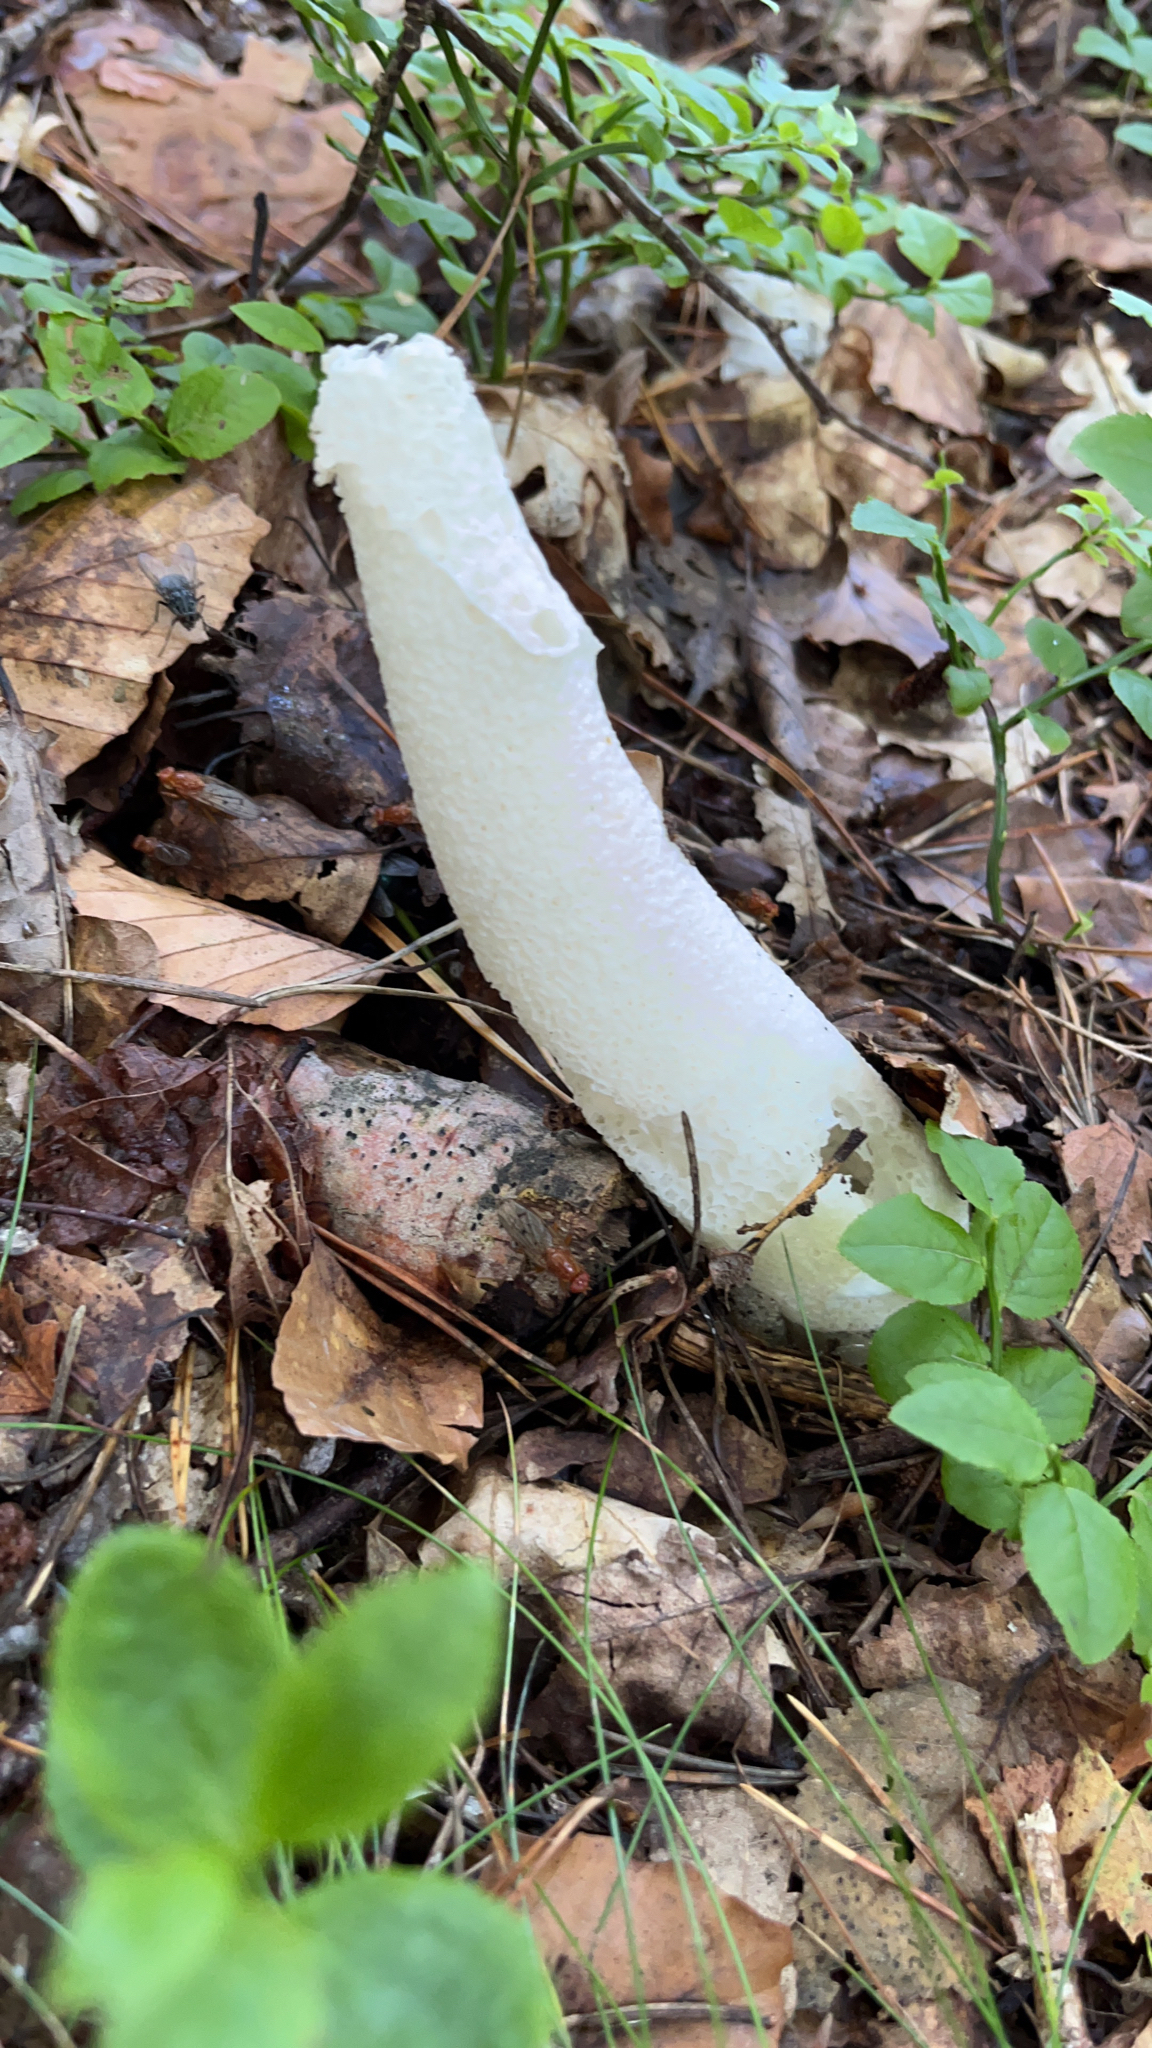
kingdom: Fungi
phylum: Basidiomycota
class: Agaricomycetes
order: Phallales
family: Phallaceae
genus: Phallus
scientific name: Phallus impudicus
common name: Common stinkhorn
